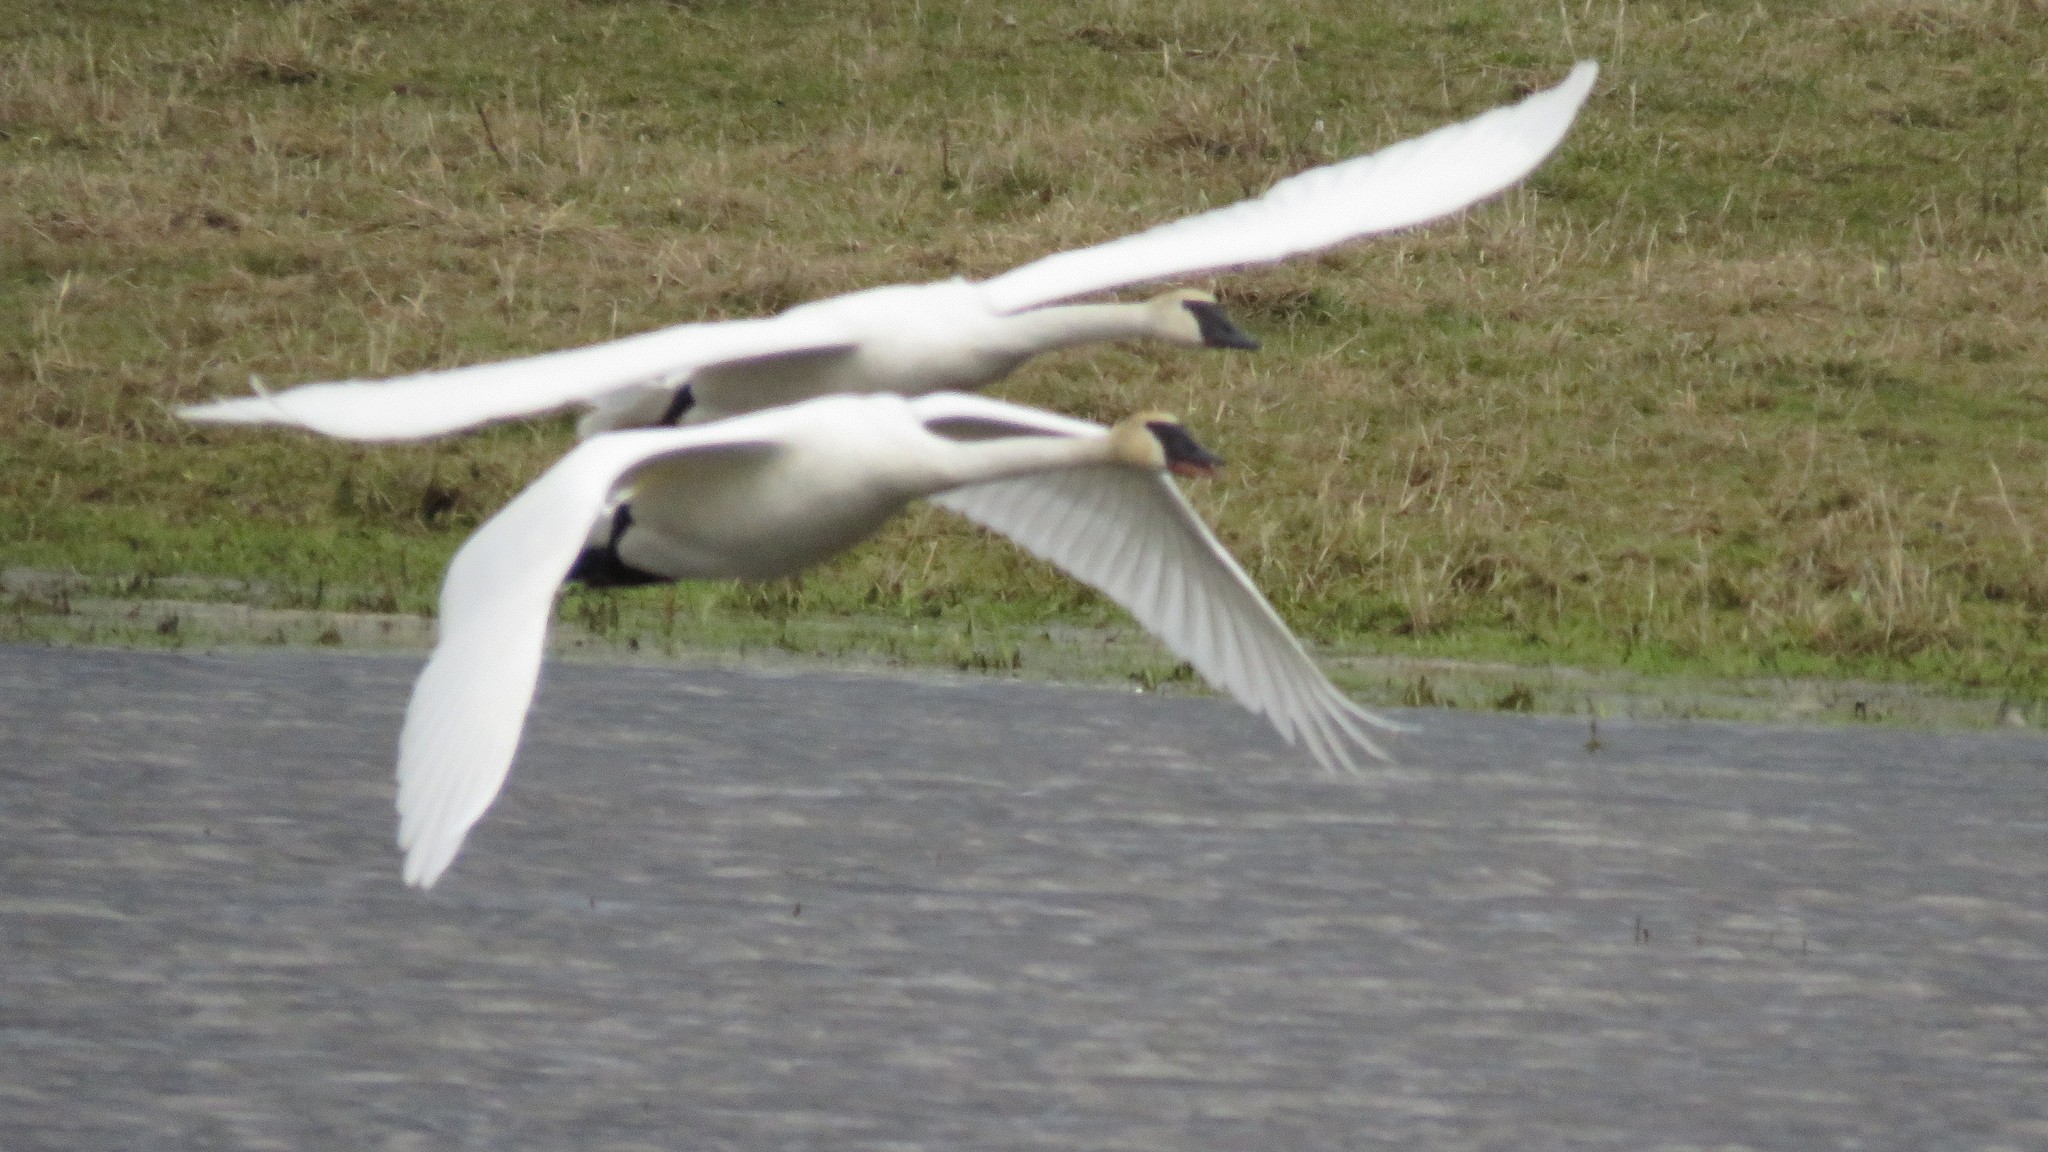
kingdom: Animalia
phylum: Chordata
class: Aves
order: Anseriformes
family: Anatidae
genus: Cygnus
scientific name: Cygnus buccinator
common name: Trumpeter swan
